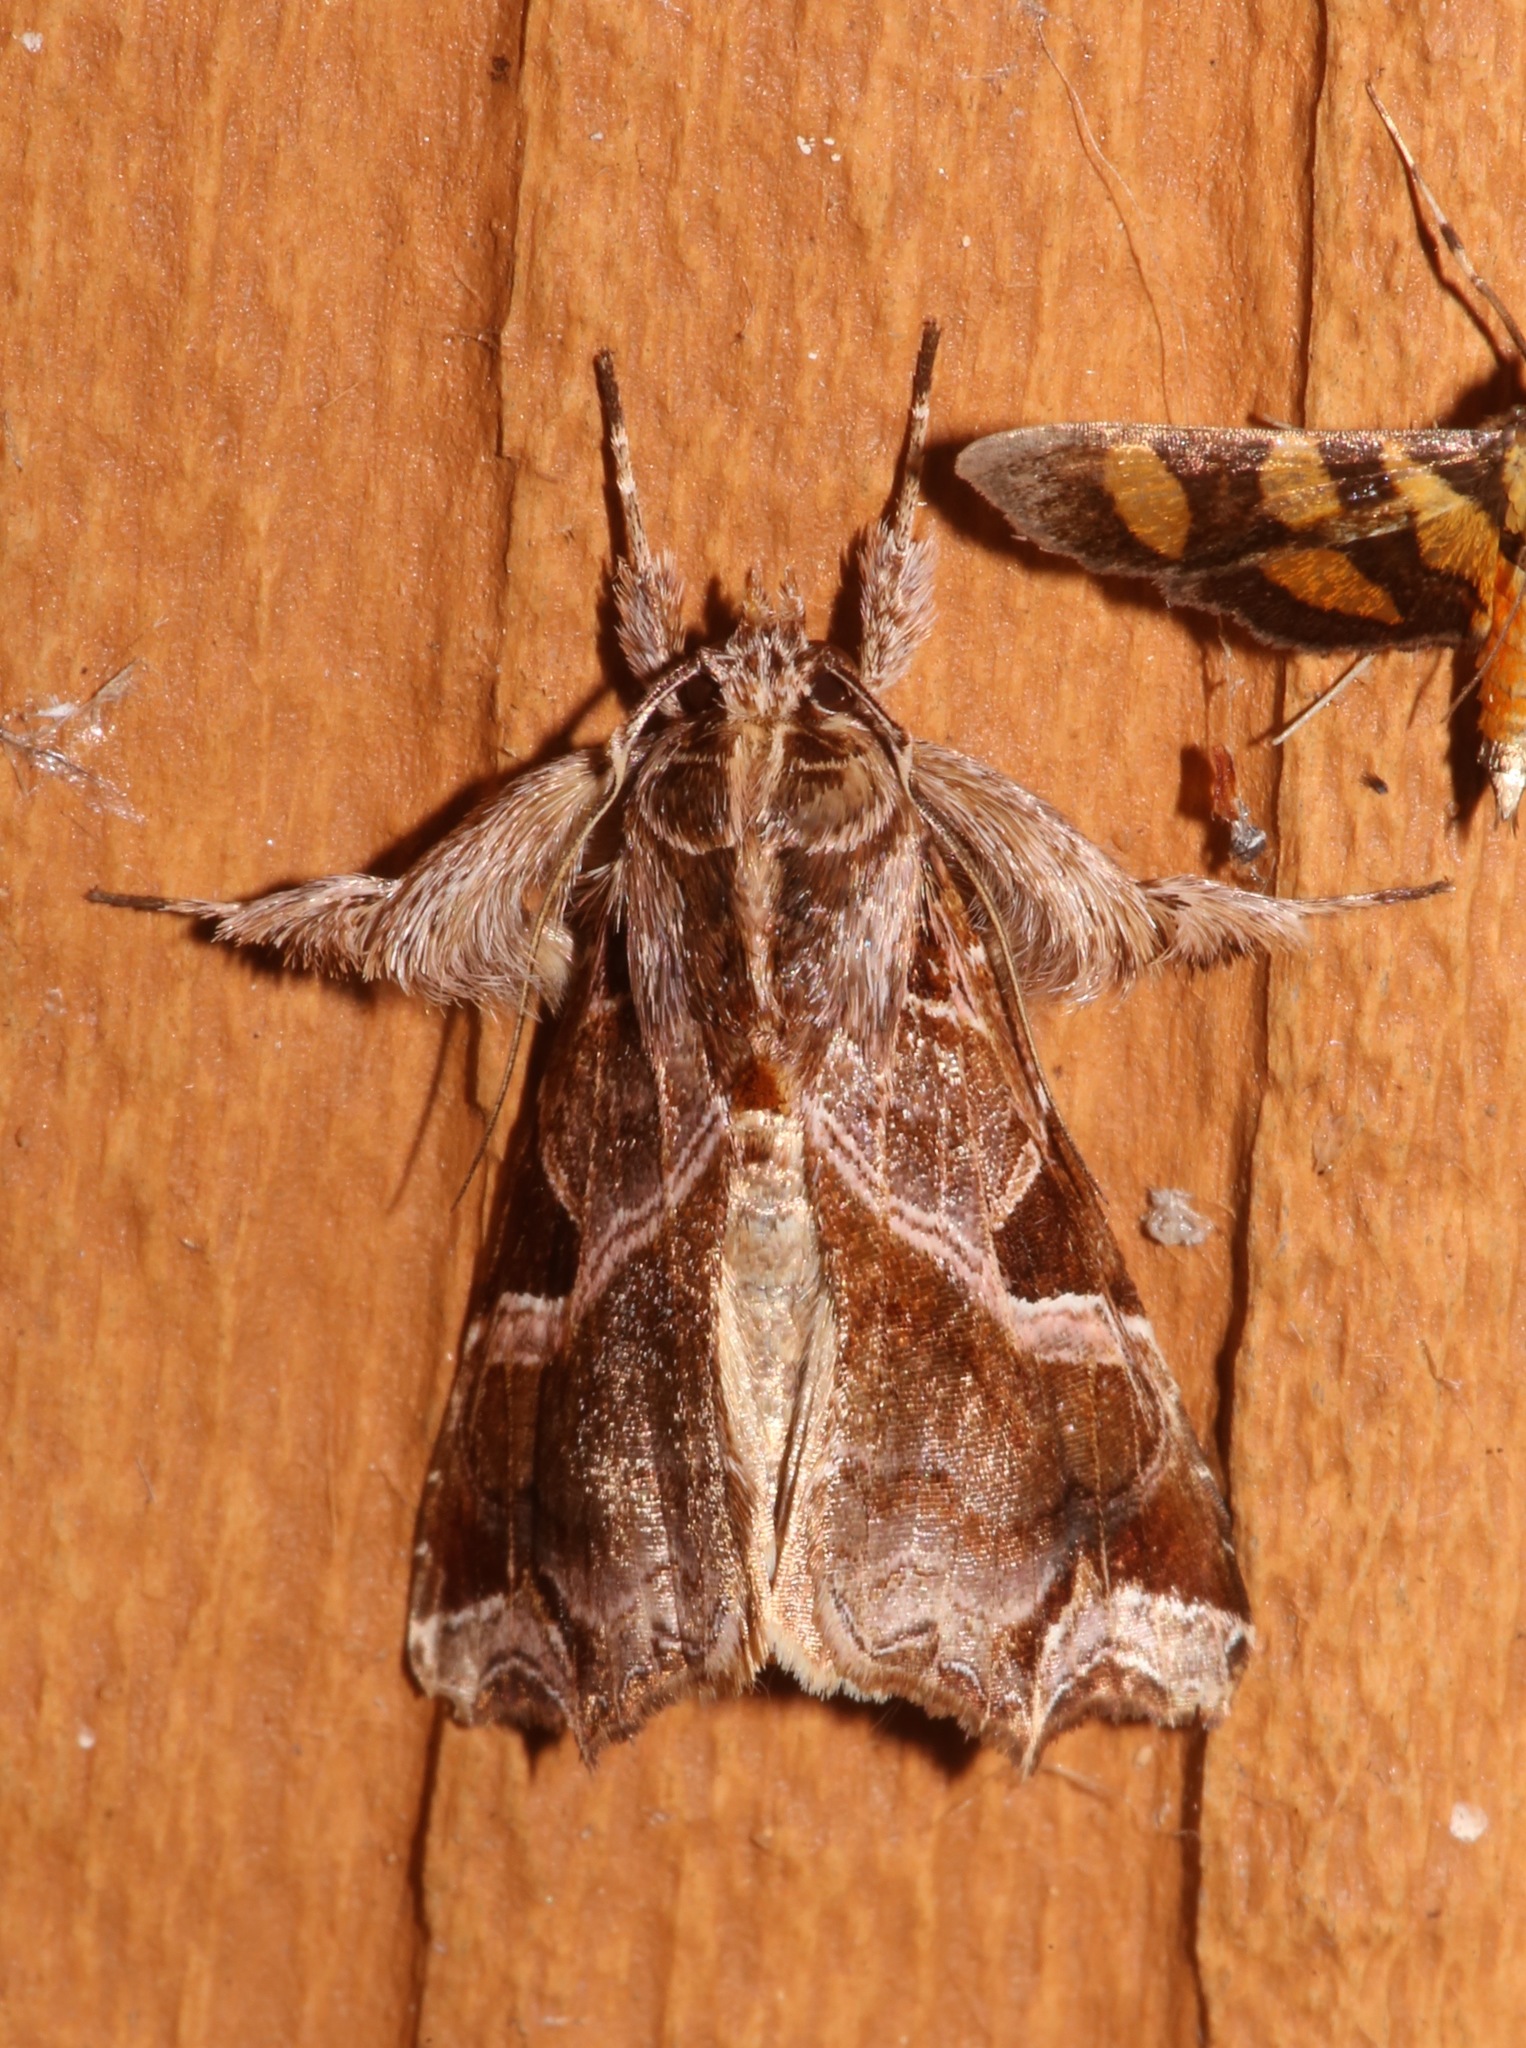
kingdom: Animalia
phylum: Arthropoda
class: Insecta
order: Lepidoptera
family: Noctuidae
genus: Callopistria
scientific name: Callopistria floridensis
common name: Florida fern moth
